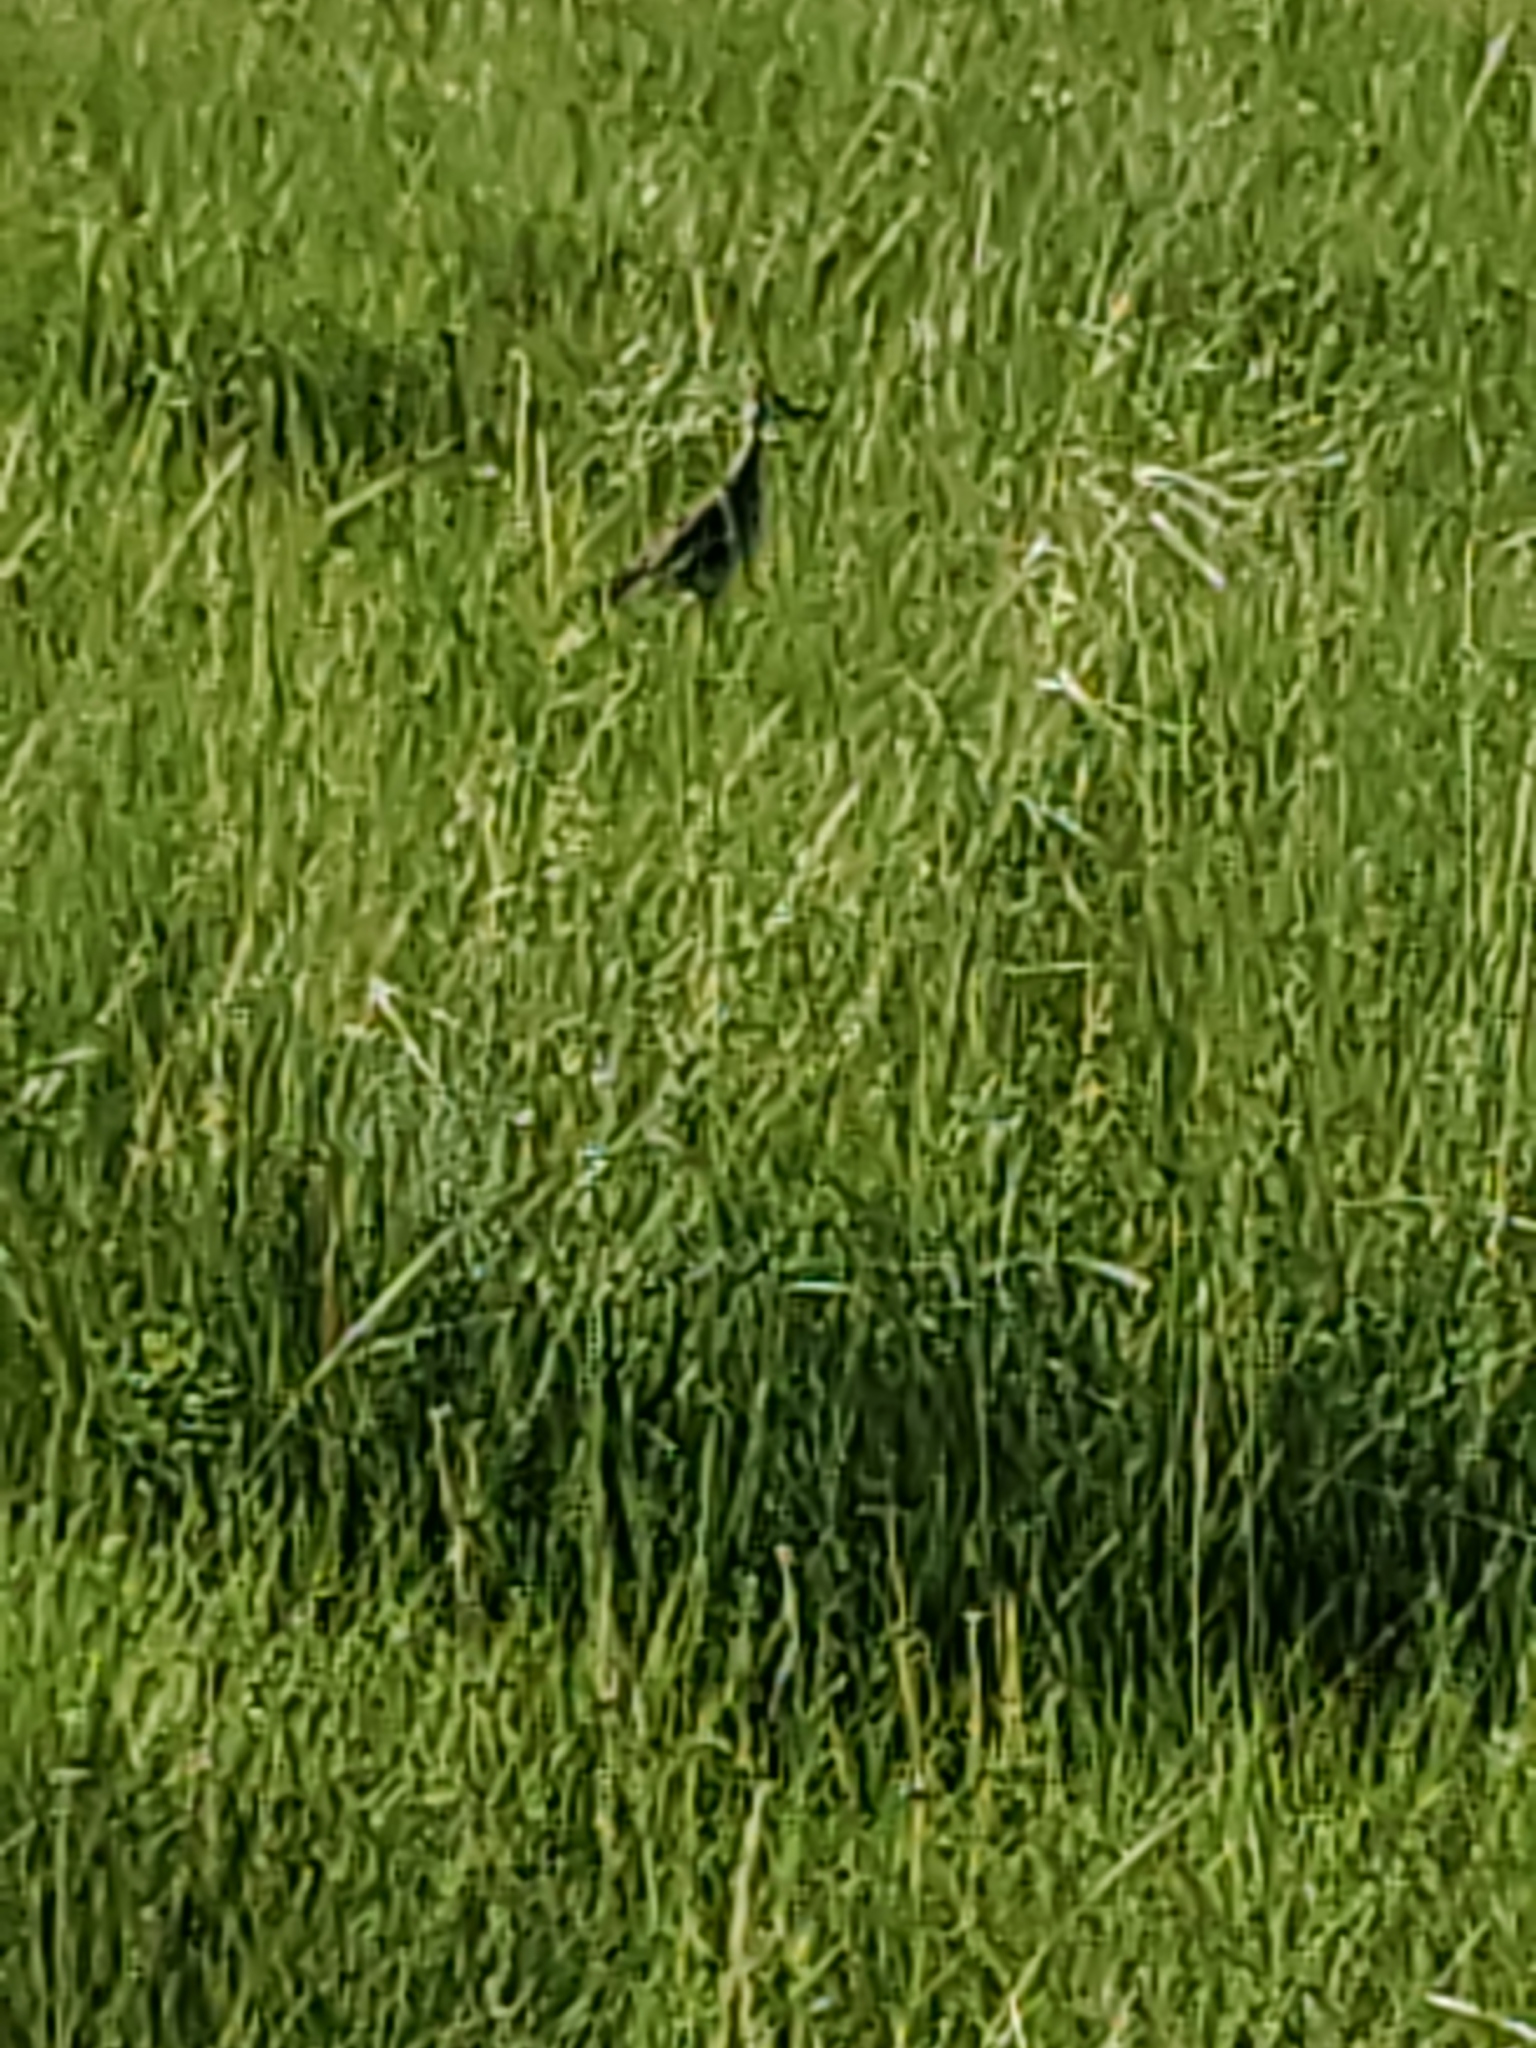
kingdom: Animalia
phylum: Chordata
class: Aves
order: Charadriiformes
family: Scolopacidae
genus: Bartramia
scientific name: Bartramia longicauda
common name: Upland sandpiper
